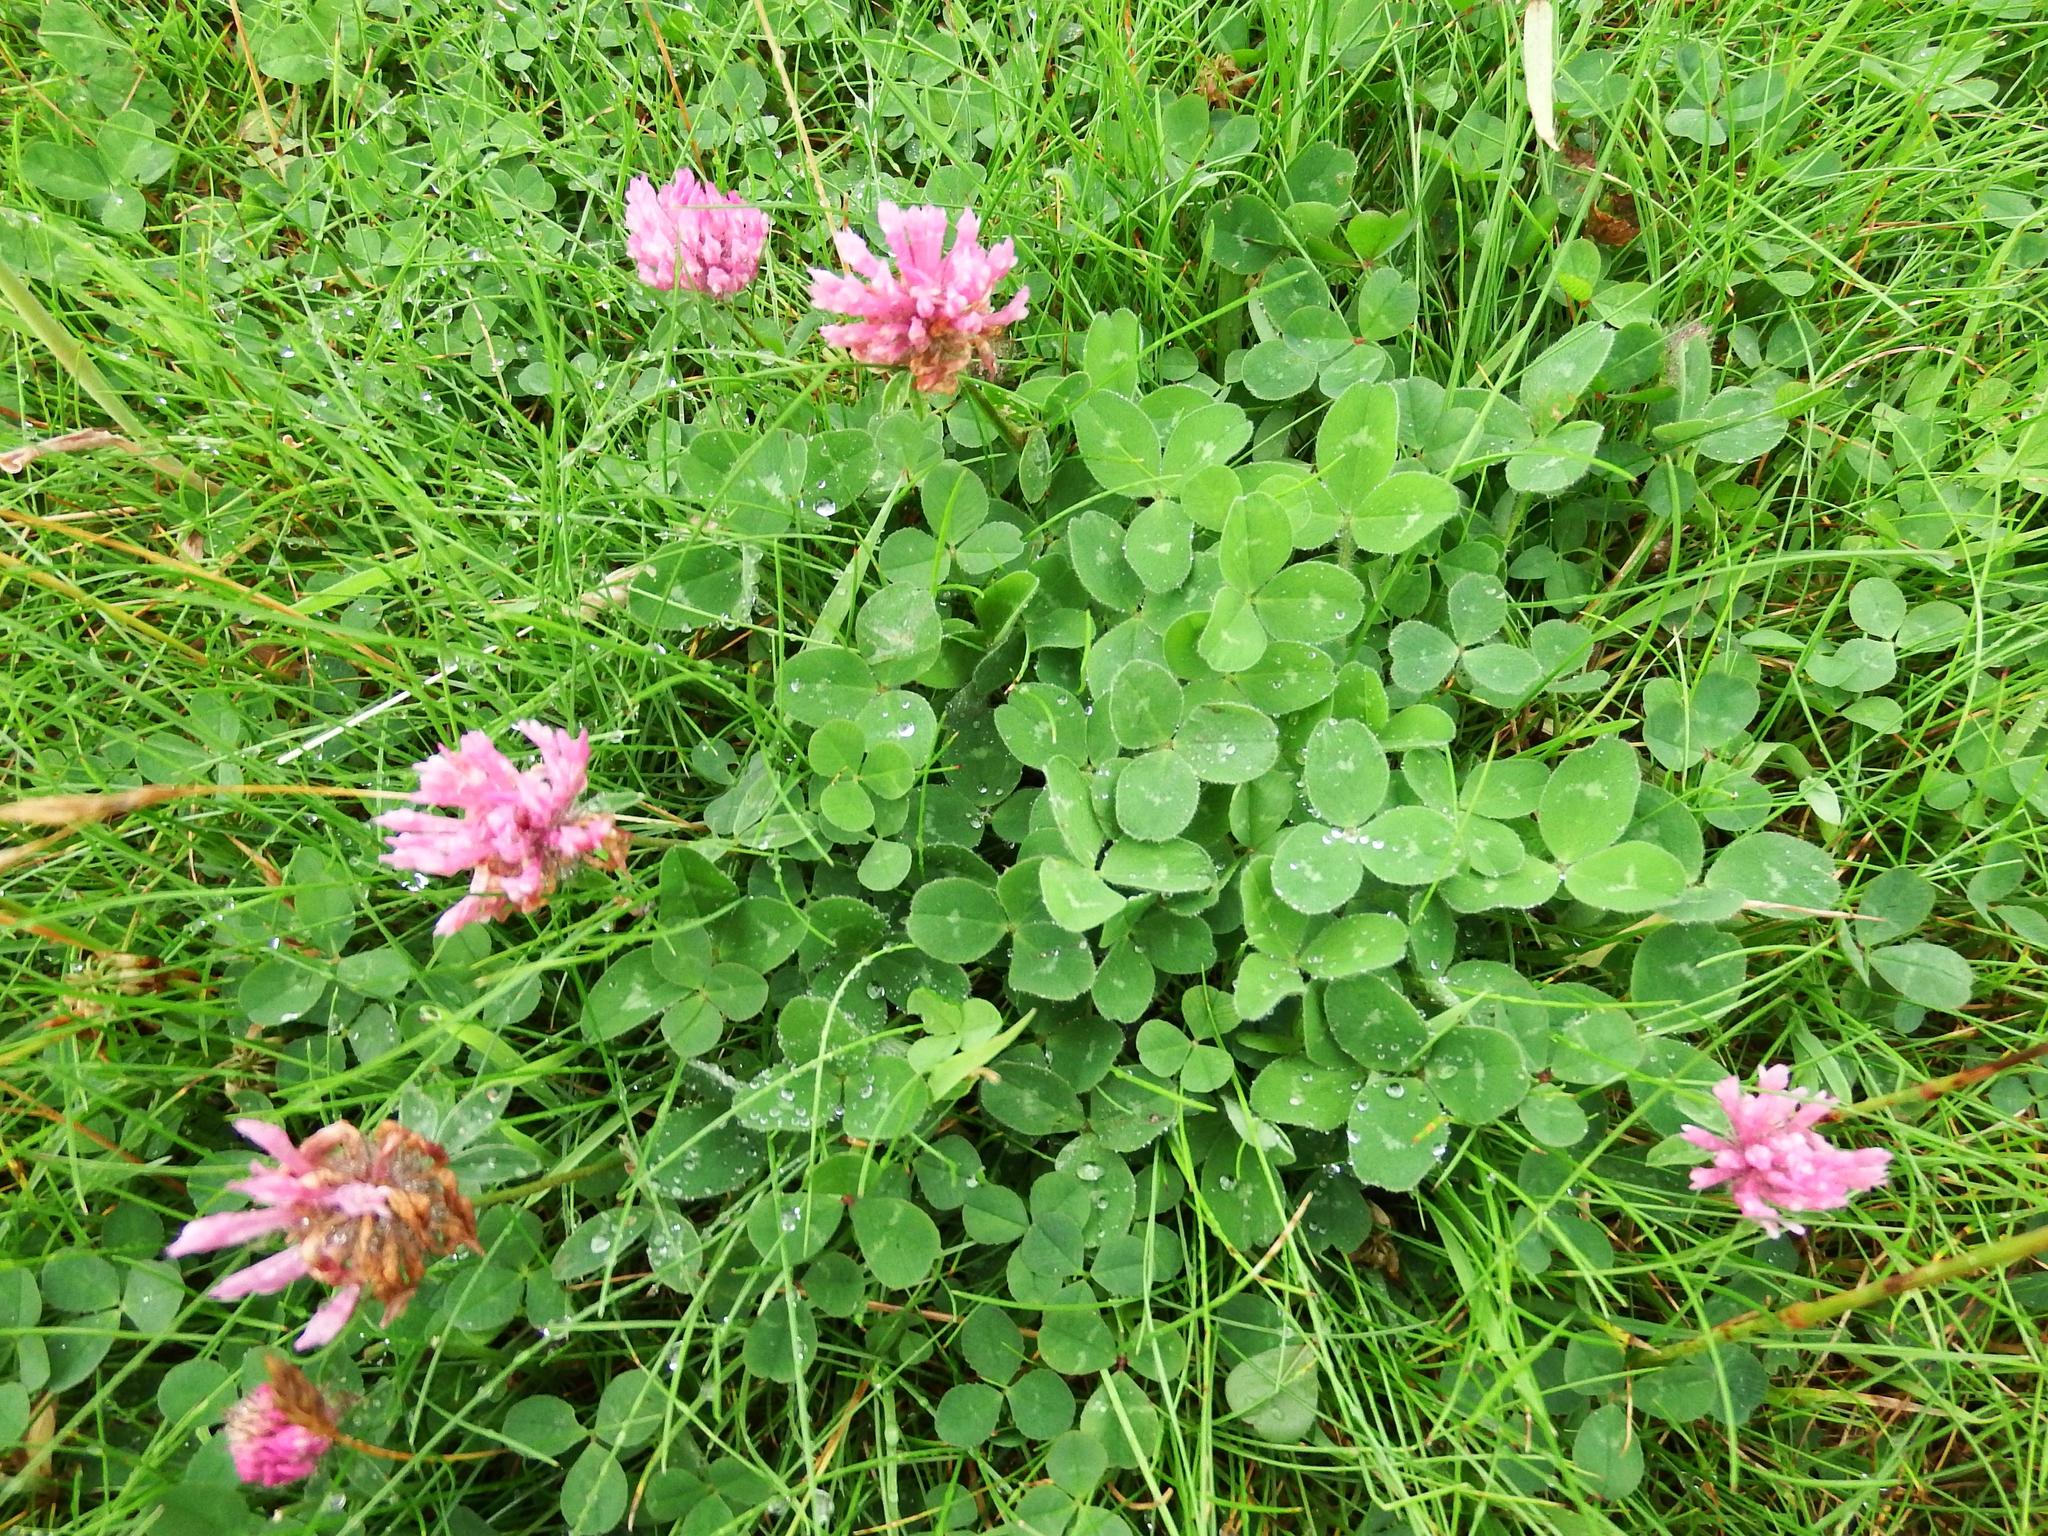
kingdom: Plantae
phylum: Tracheophyta
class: Magnoliopsida
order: Fabales
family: Fabaceae
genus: Trifolium
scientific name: Trifolium pratense
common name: Red clover
